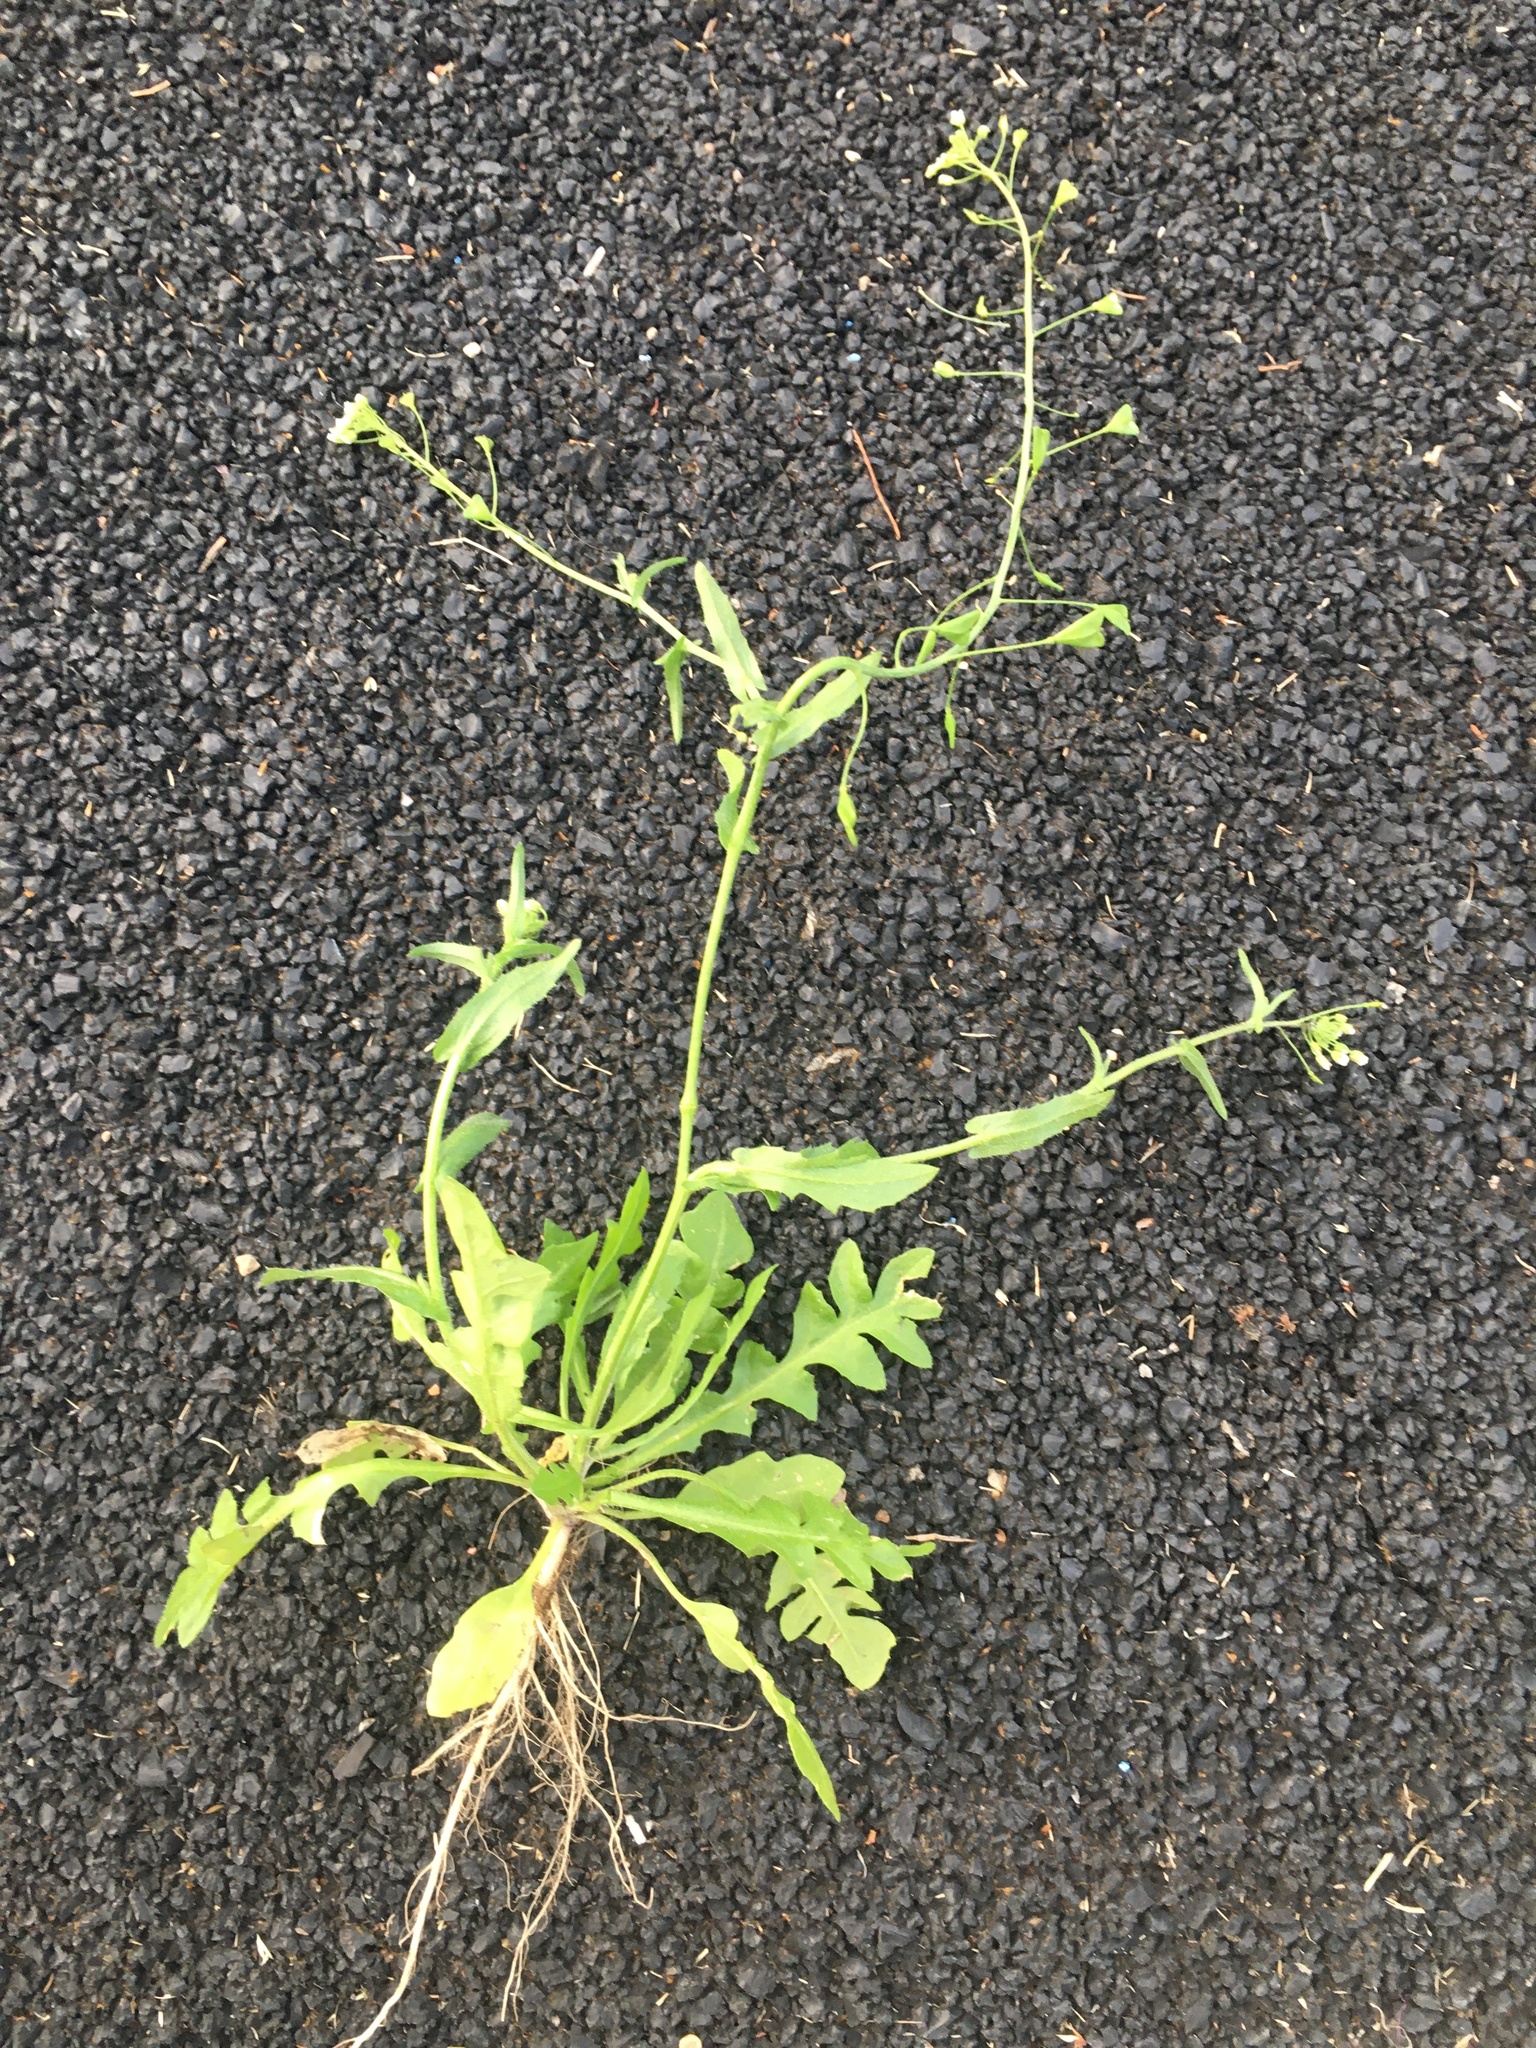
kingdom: Plantae
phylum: Tracheophyta
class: Magnoliopsida
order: Brassicales
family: Brassicaceae
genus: Capsella
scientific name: Capsella bursa-pastoris
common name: Shepherd's purse
